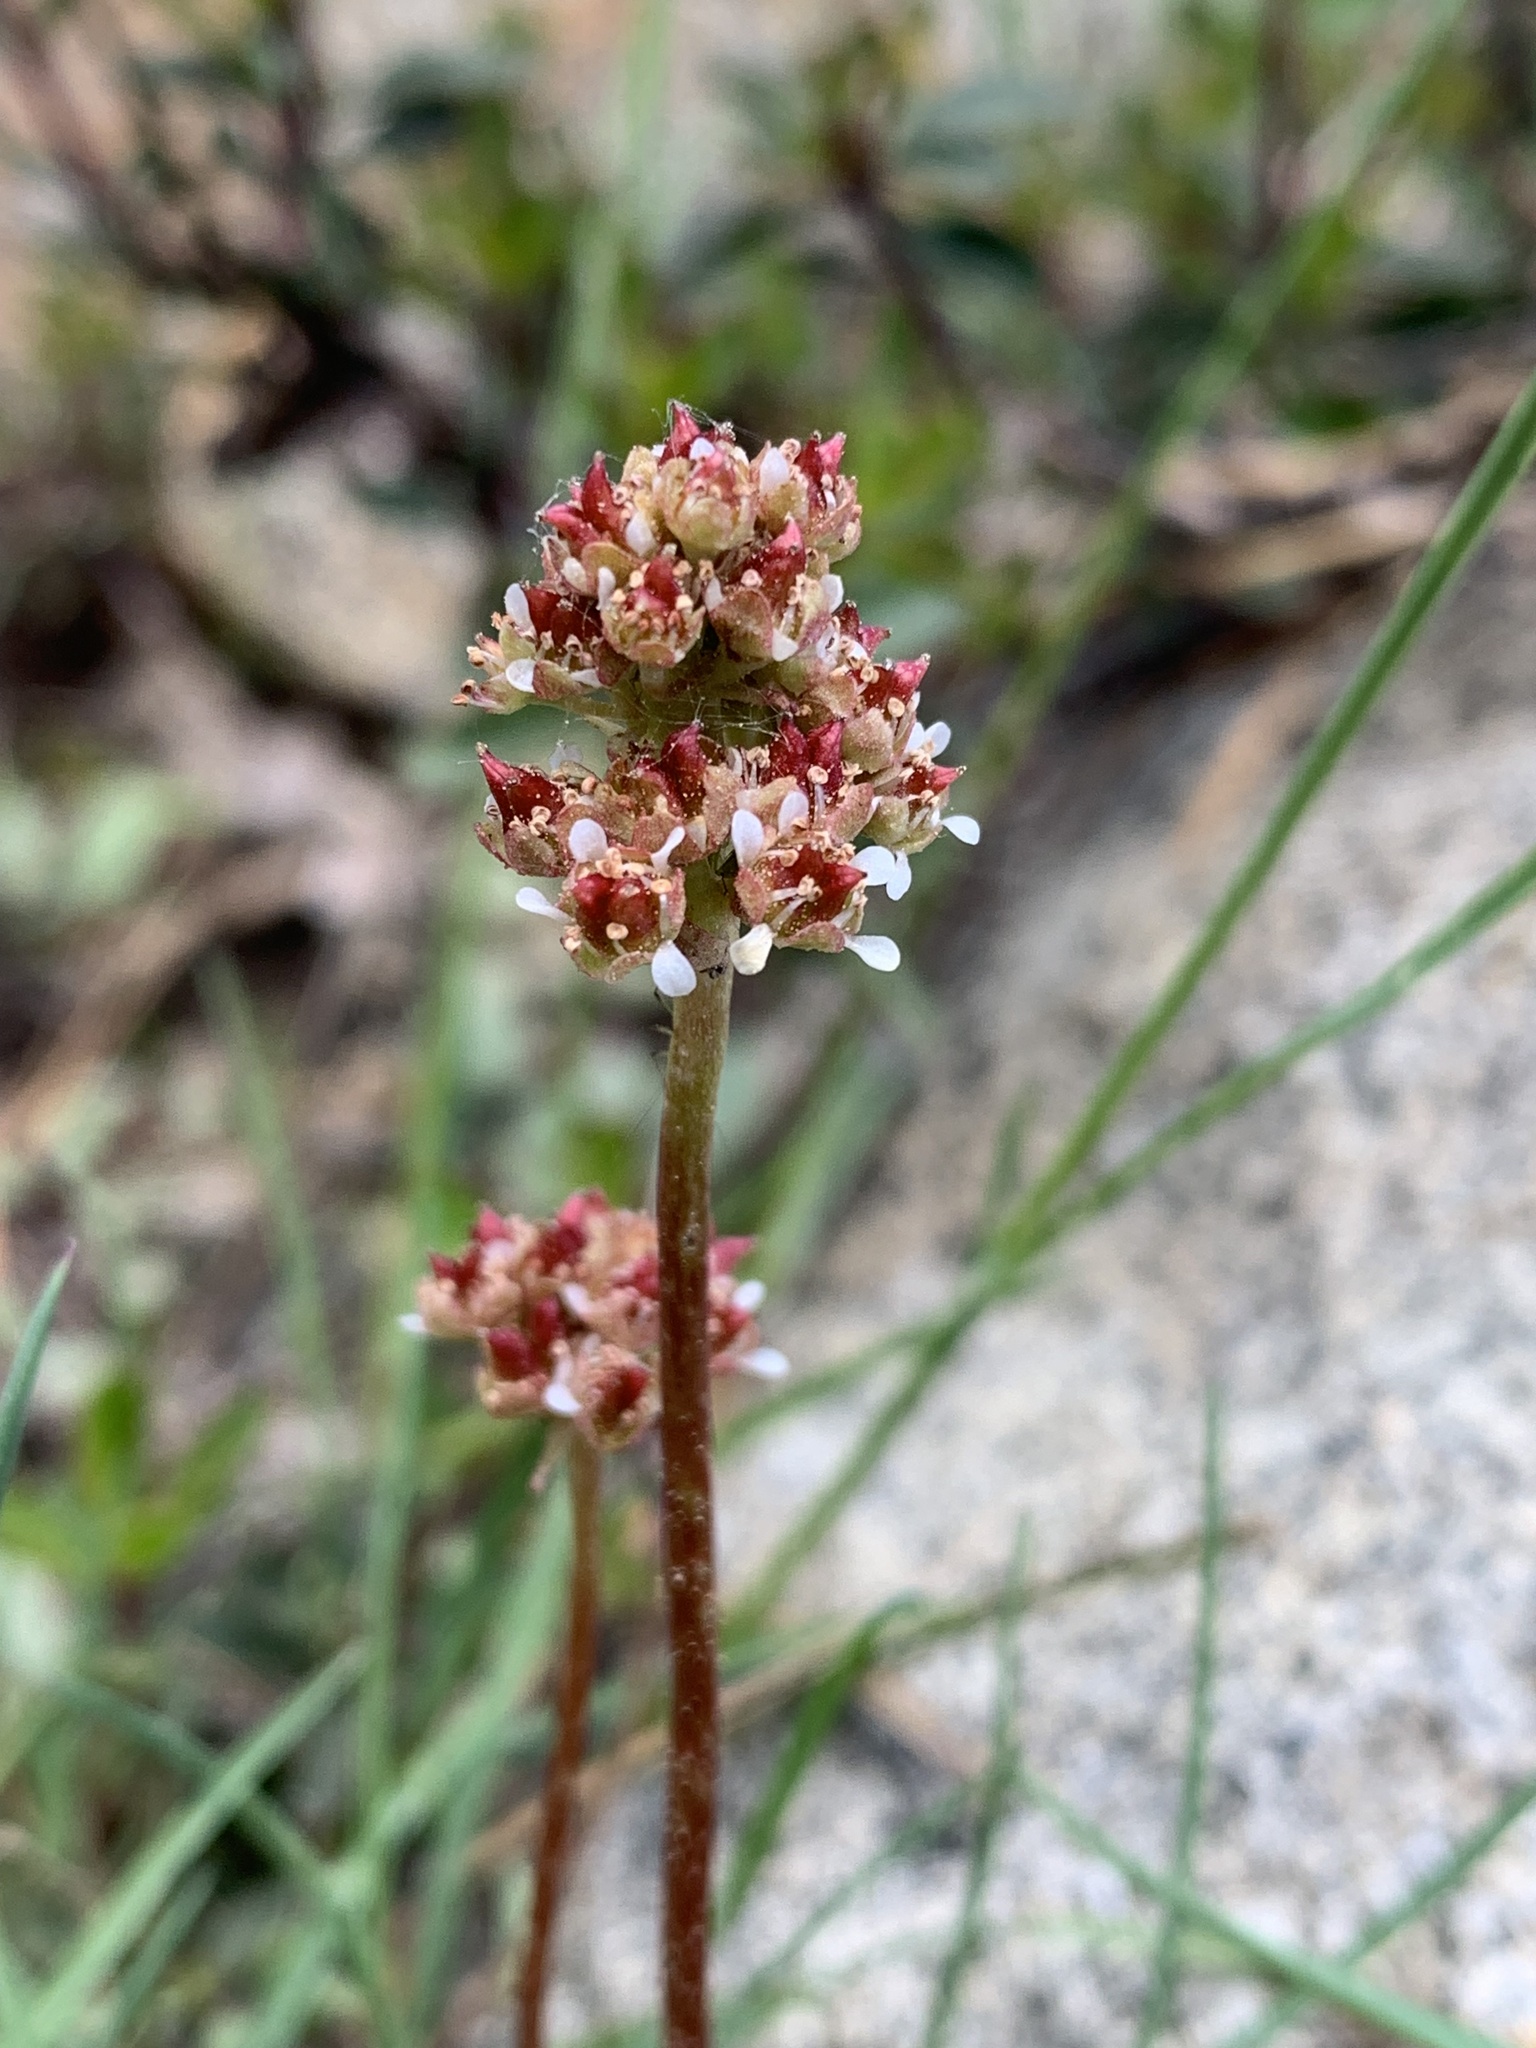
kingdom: Plantae
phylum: Tracheophyta
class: Magnoliopsida
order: Saxifragales
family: Saxifragaceae
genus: Micranthes
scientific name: Micranthes aprica
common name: Sierra saxifrage
